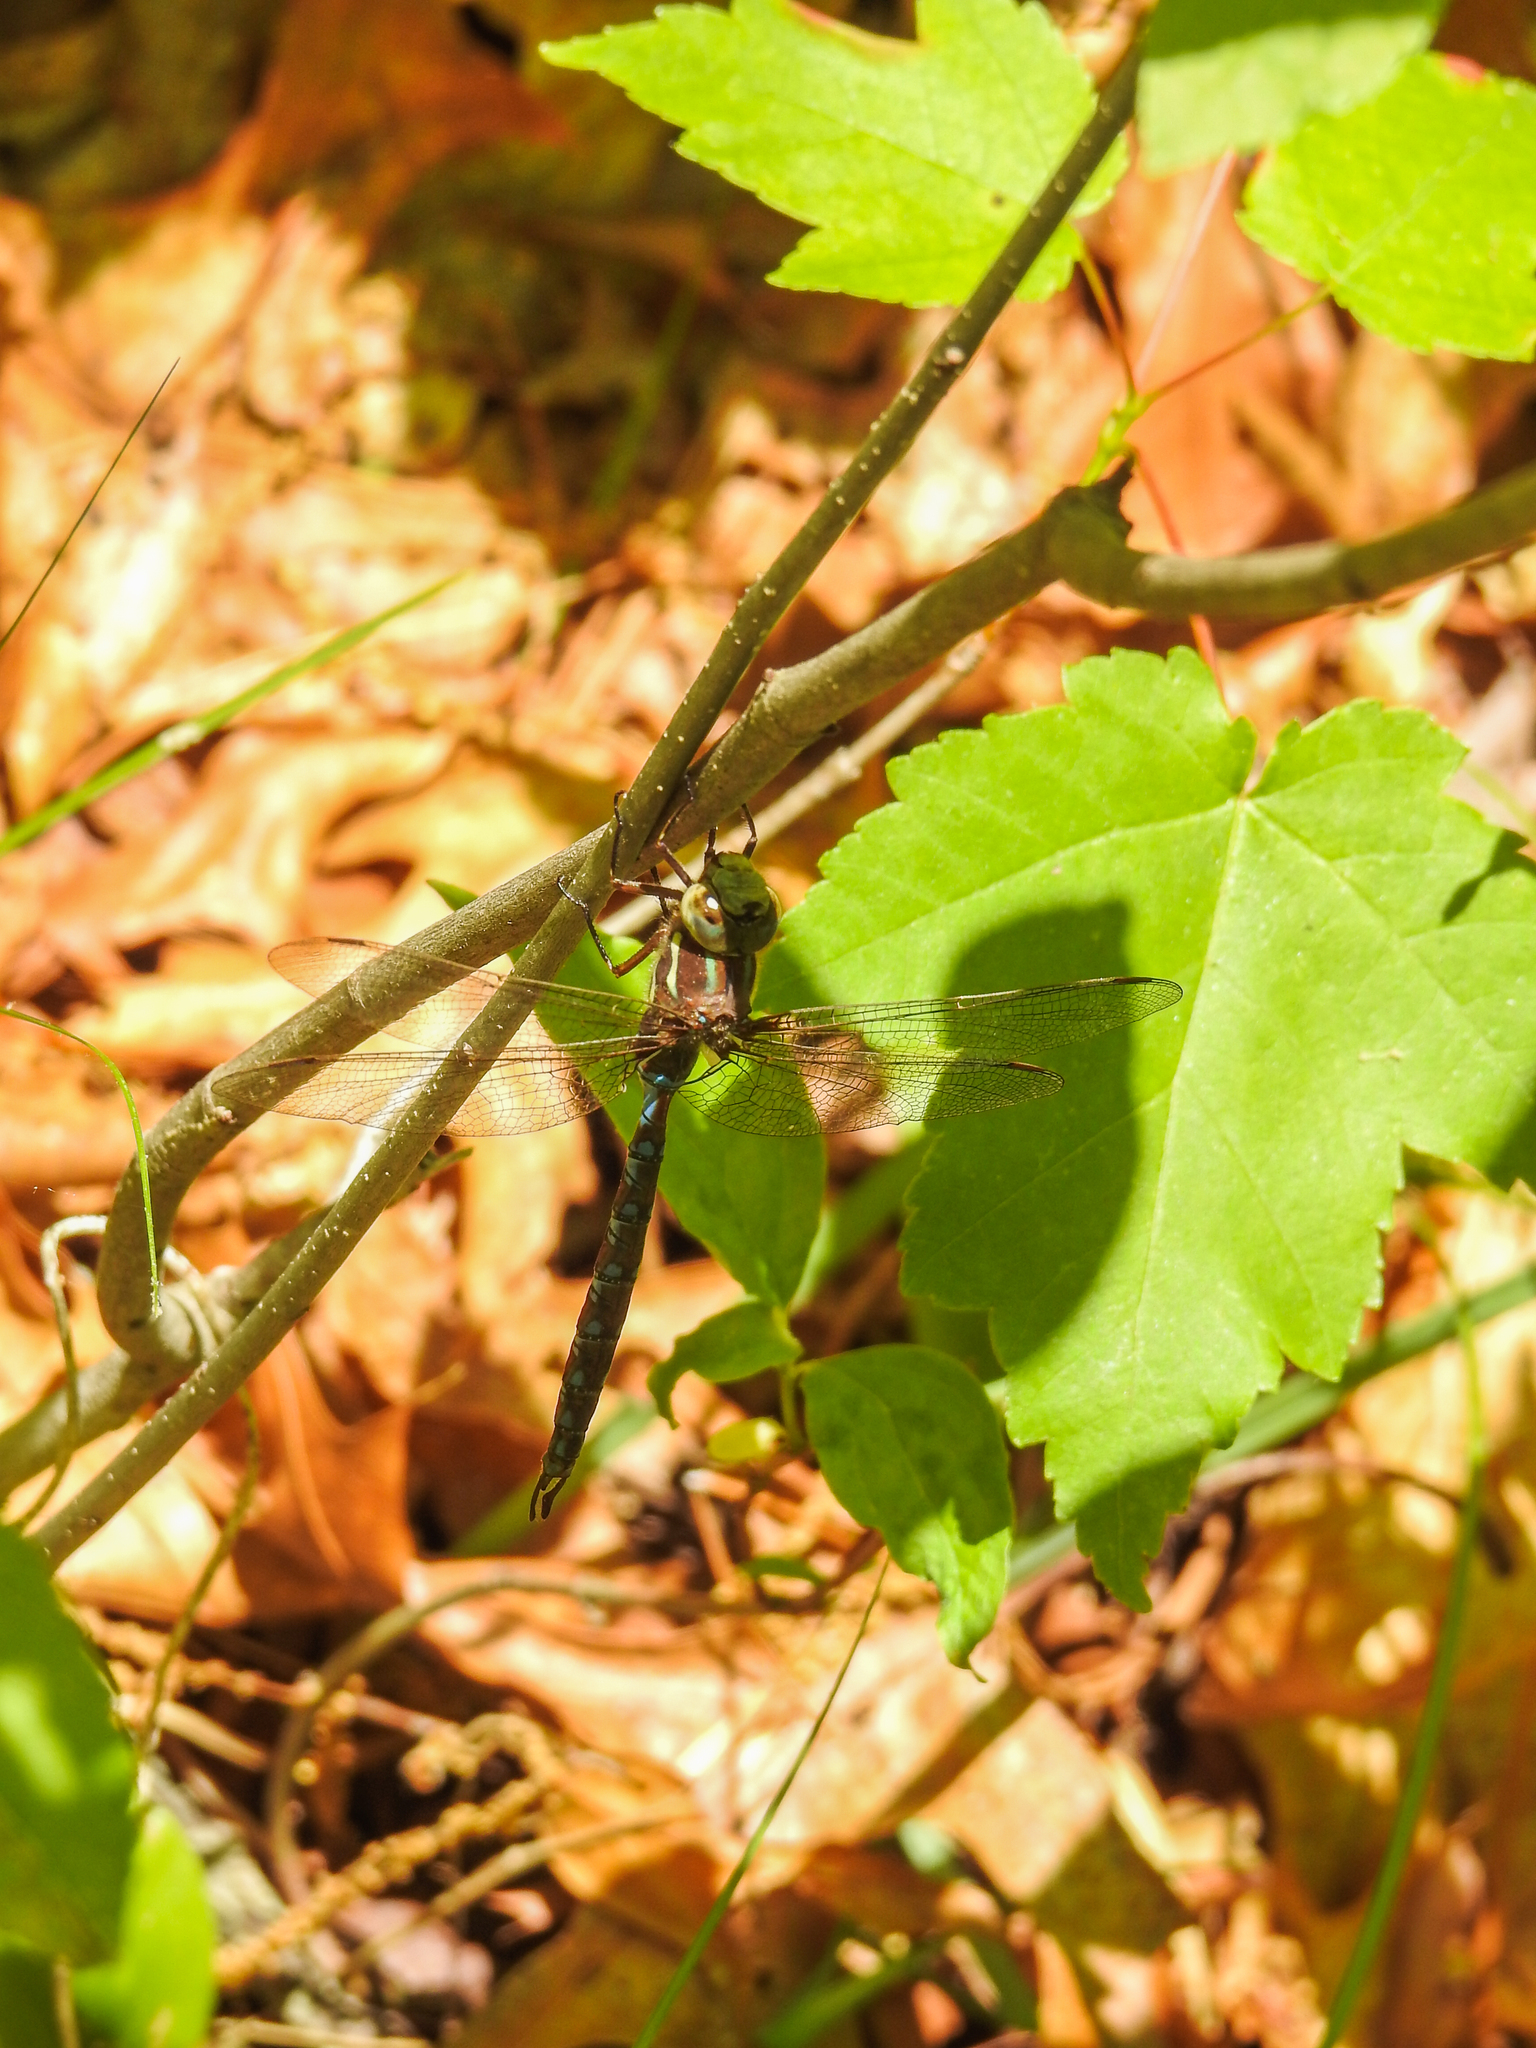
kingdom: Animalia
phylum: Arthropoda
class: Insecta
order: Odonata
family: Aeshnidae
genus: Basiaeschna
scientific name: Basiaeschna janata
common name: Springtime darner
